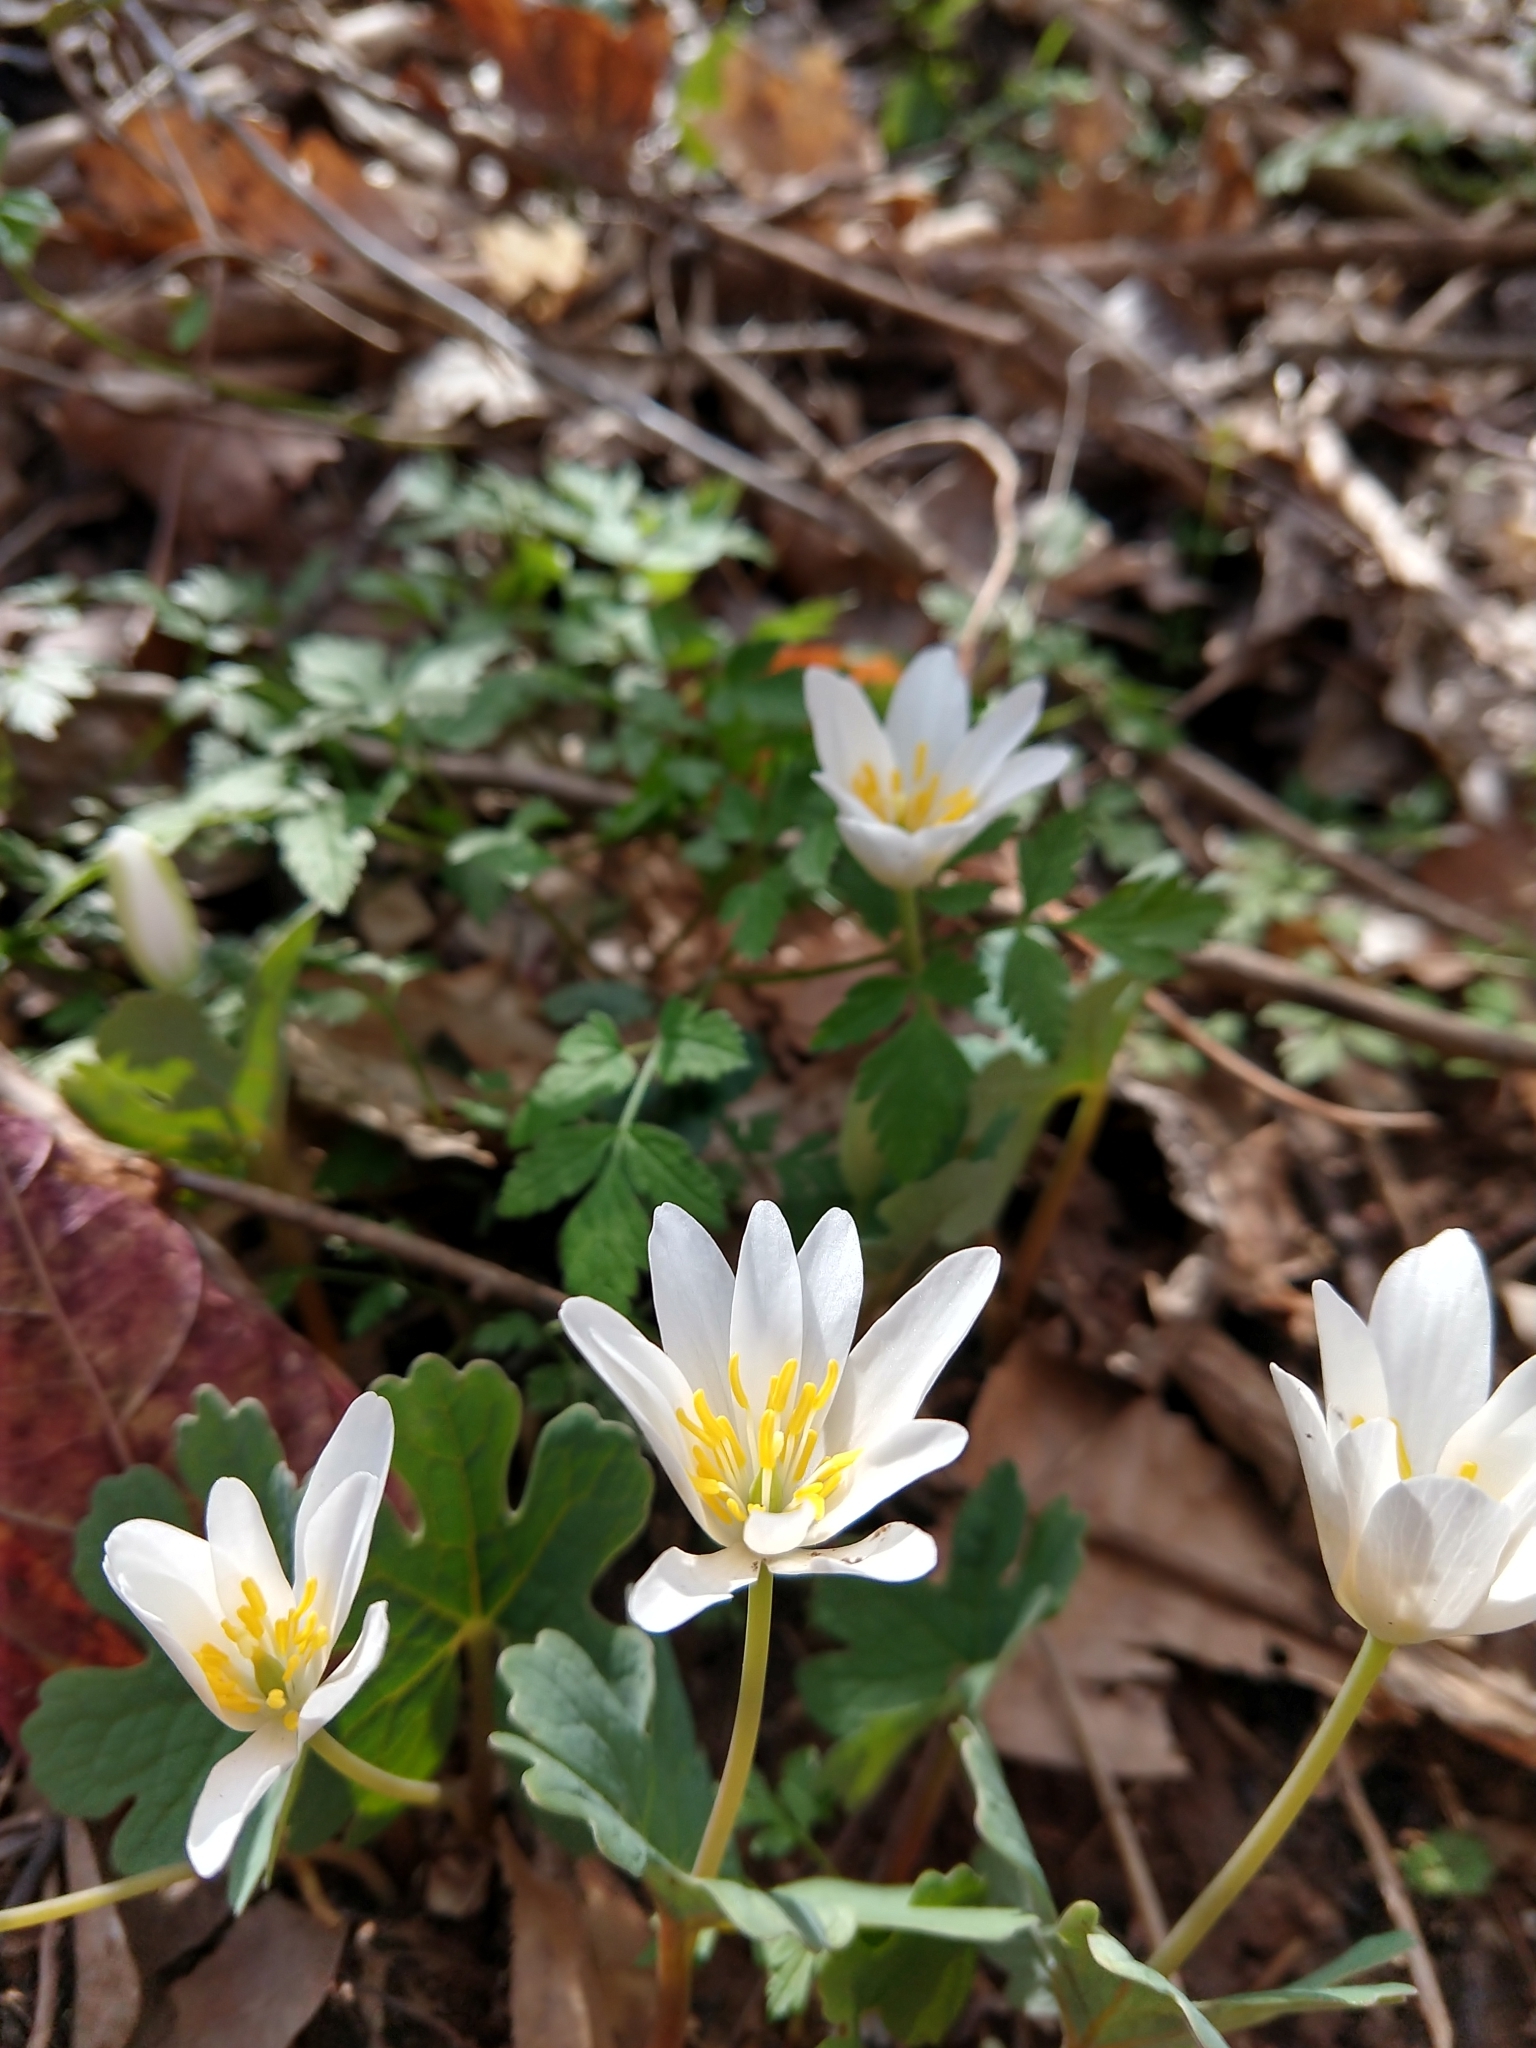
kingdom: Plantae
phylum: Tracheophyta
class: Magnoliopsida
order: Ranunculales
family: Papaveraceae
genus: Sanguinaria
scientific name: Sanguinaria canadensis
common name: Bloodroot
